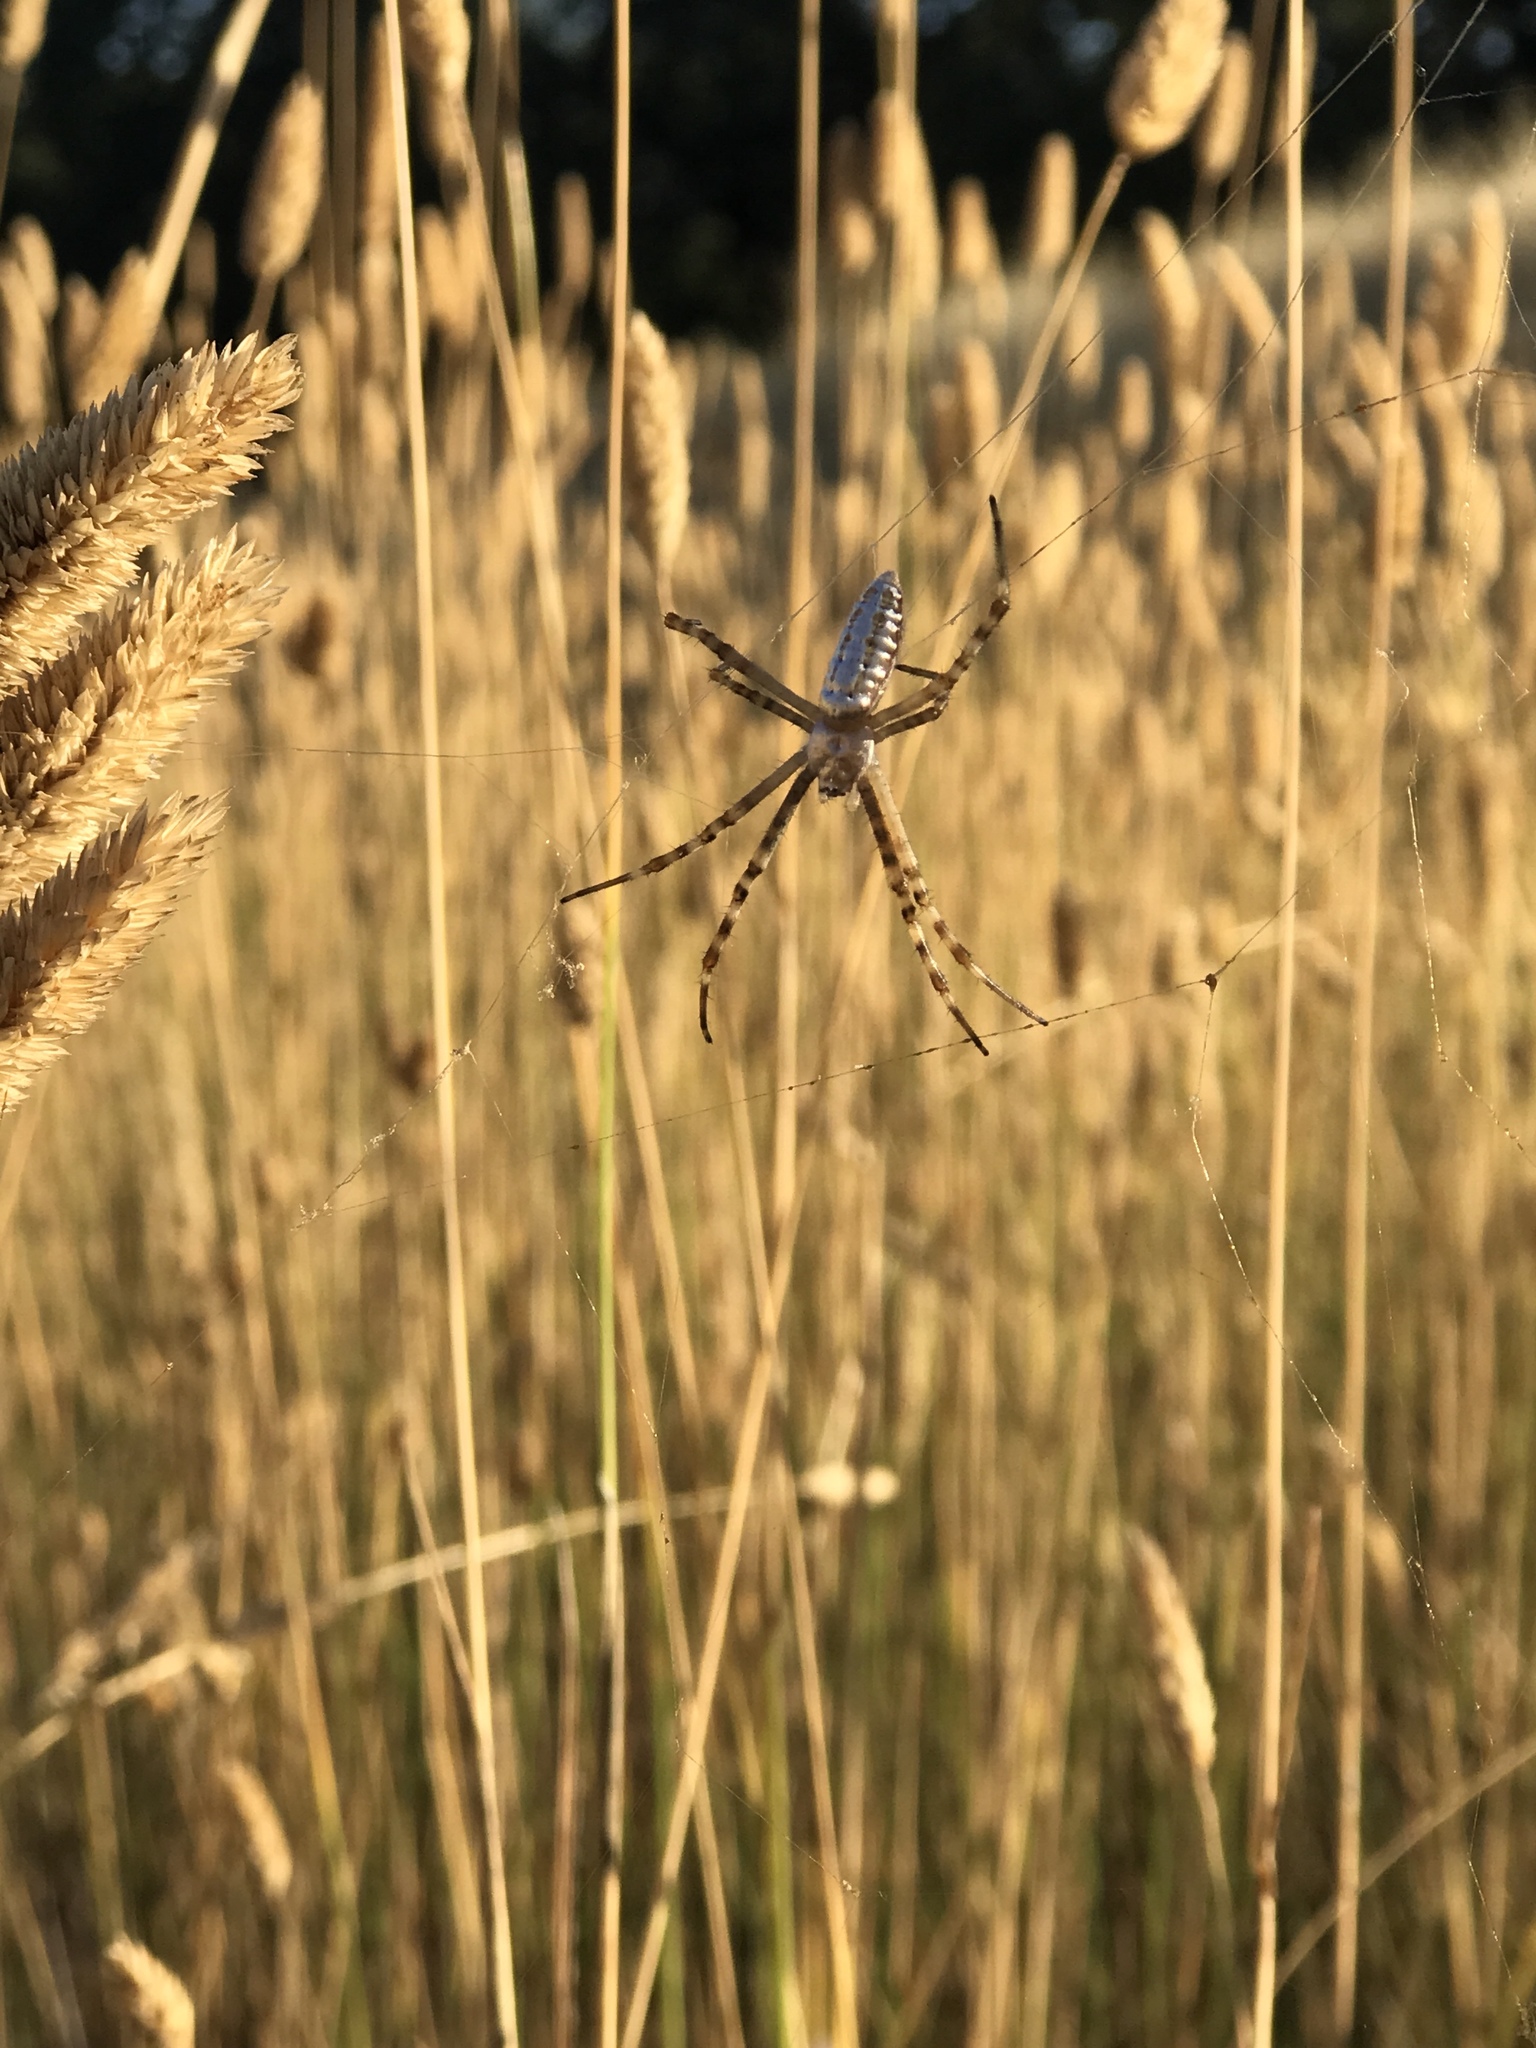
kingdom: Animalia
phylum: Arthropoda
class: Arachnida
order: Araneae
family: Araneidae
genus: Argiope
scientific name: Argiope trifasciata
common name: Banded garden spider
